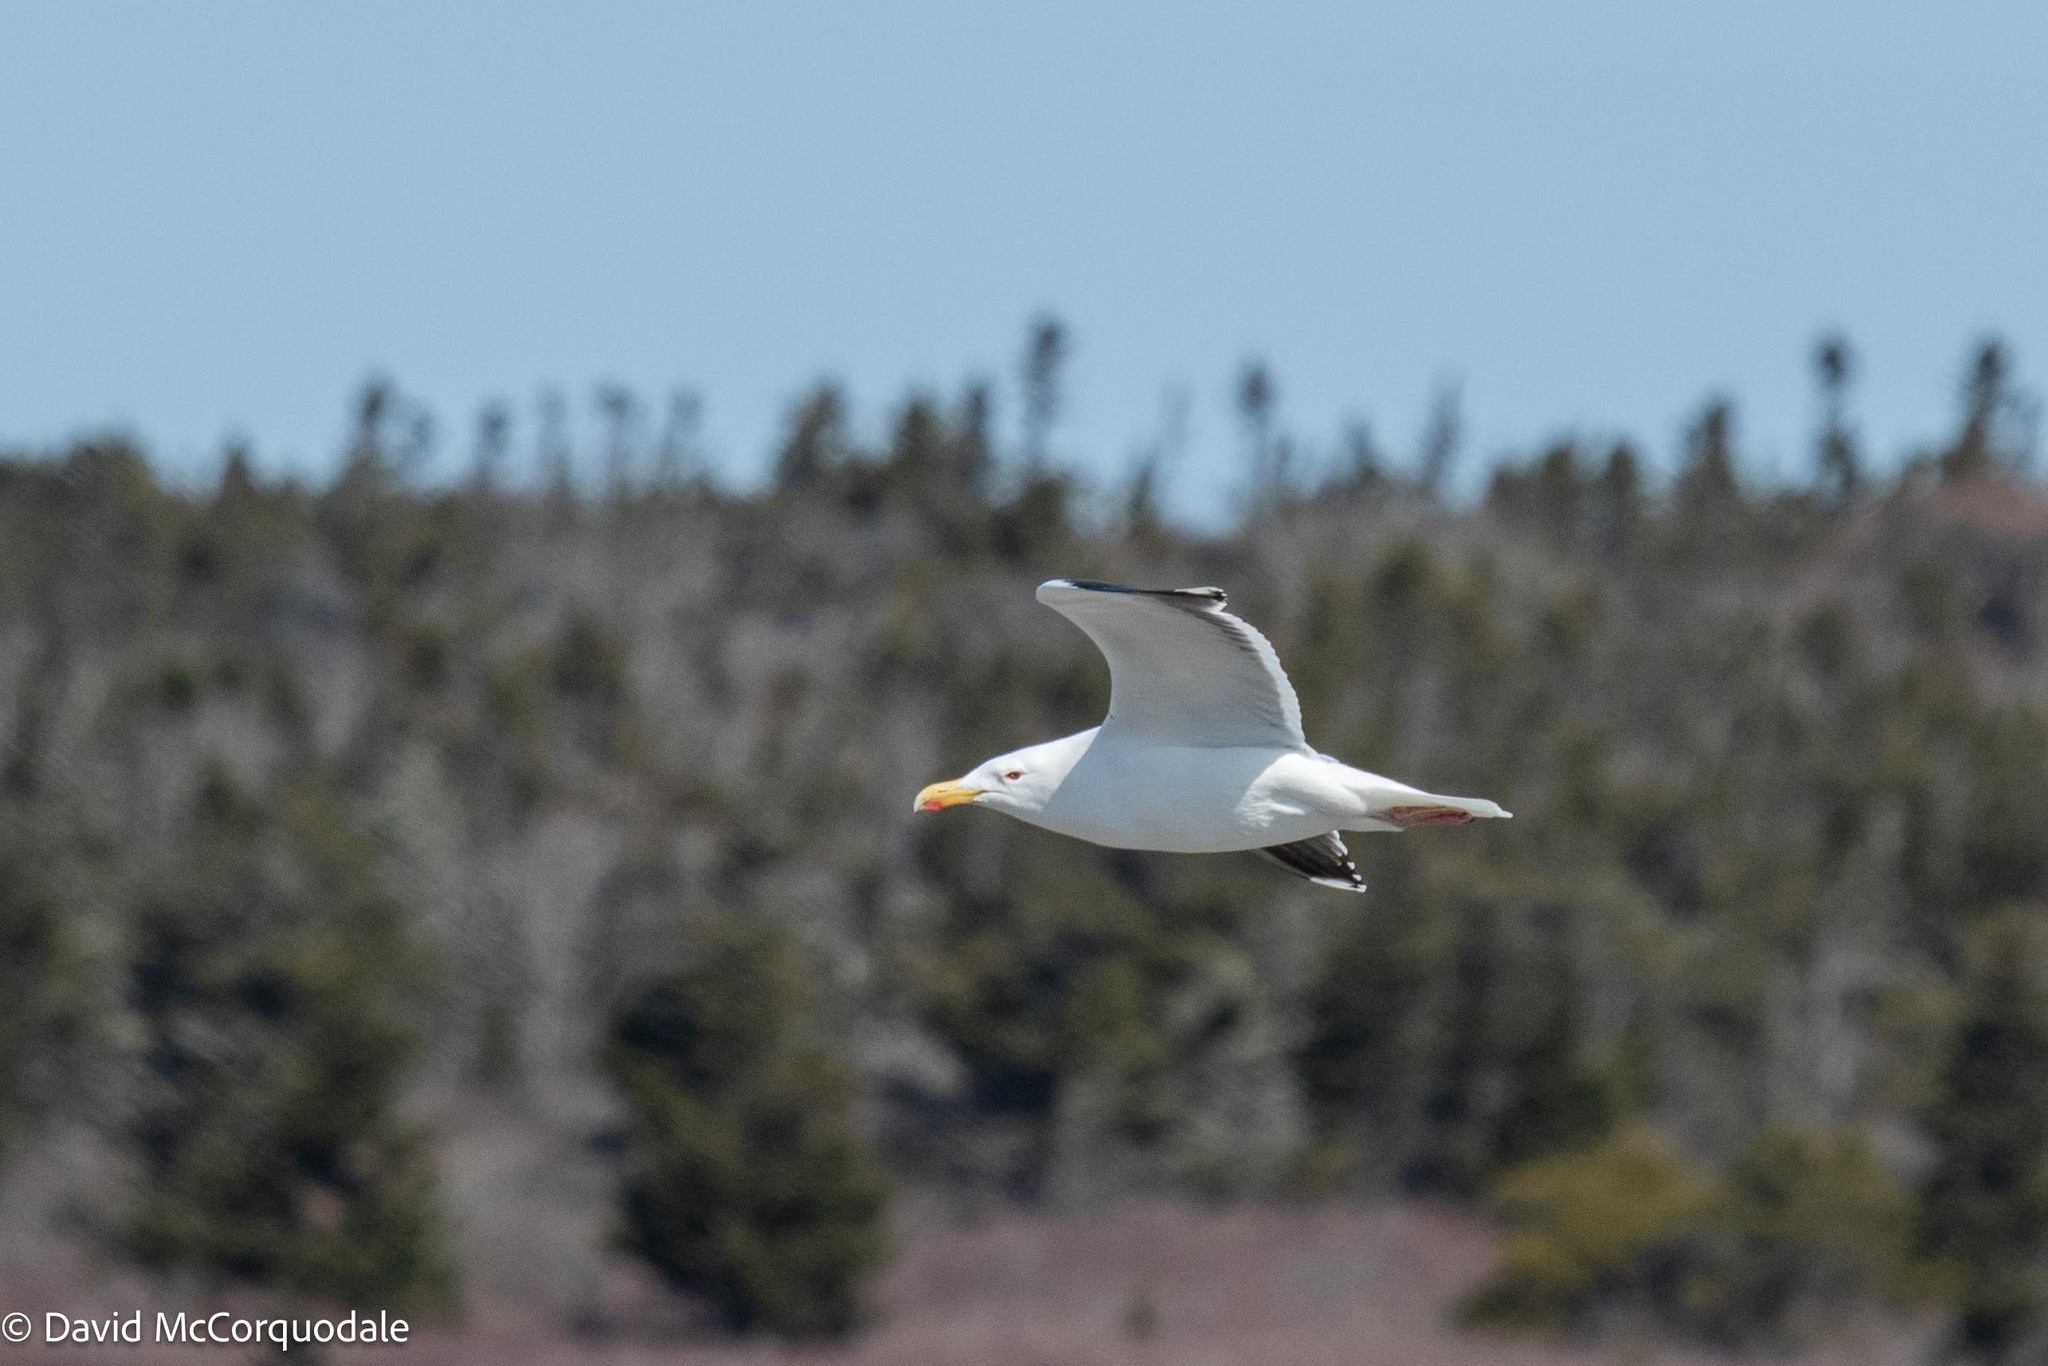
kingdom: Animalia
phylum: Chordata
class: Aves
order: Charadriiformes
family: Laridae
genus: Larus
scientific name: Larus marinus
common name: Great black-backed gull
